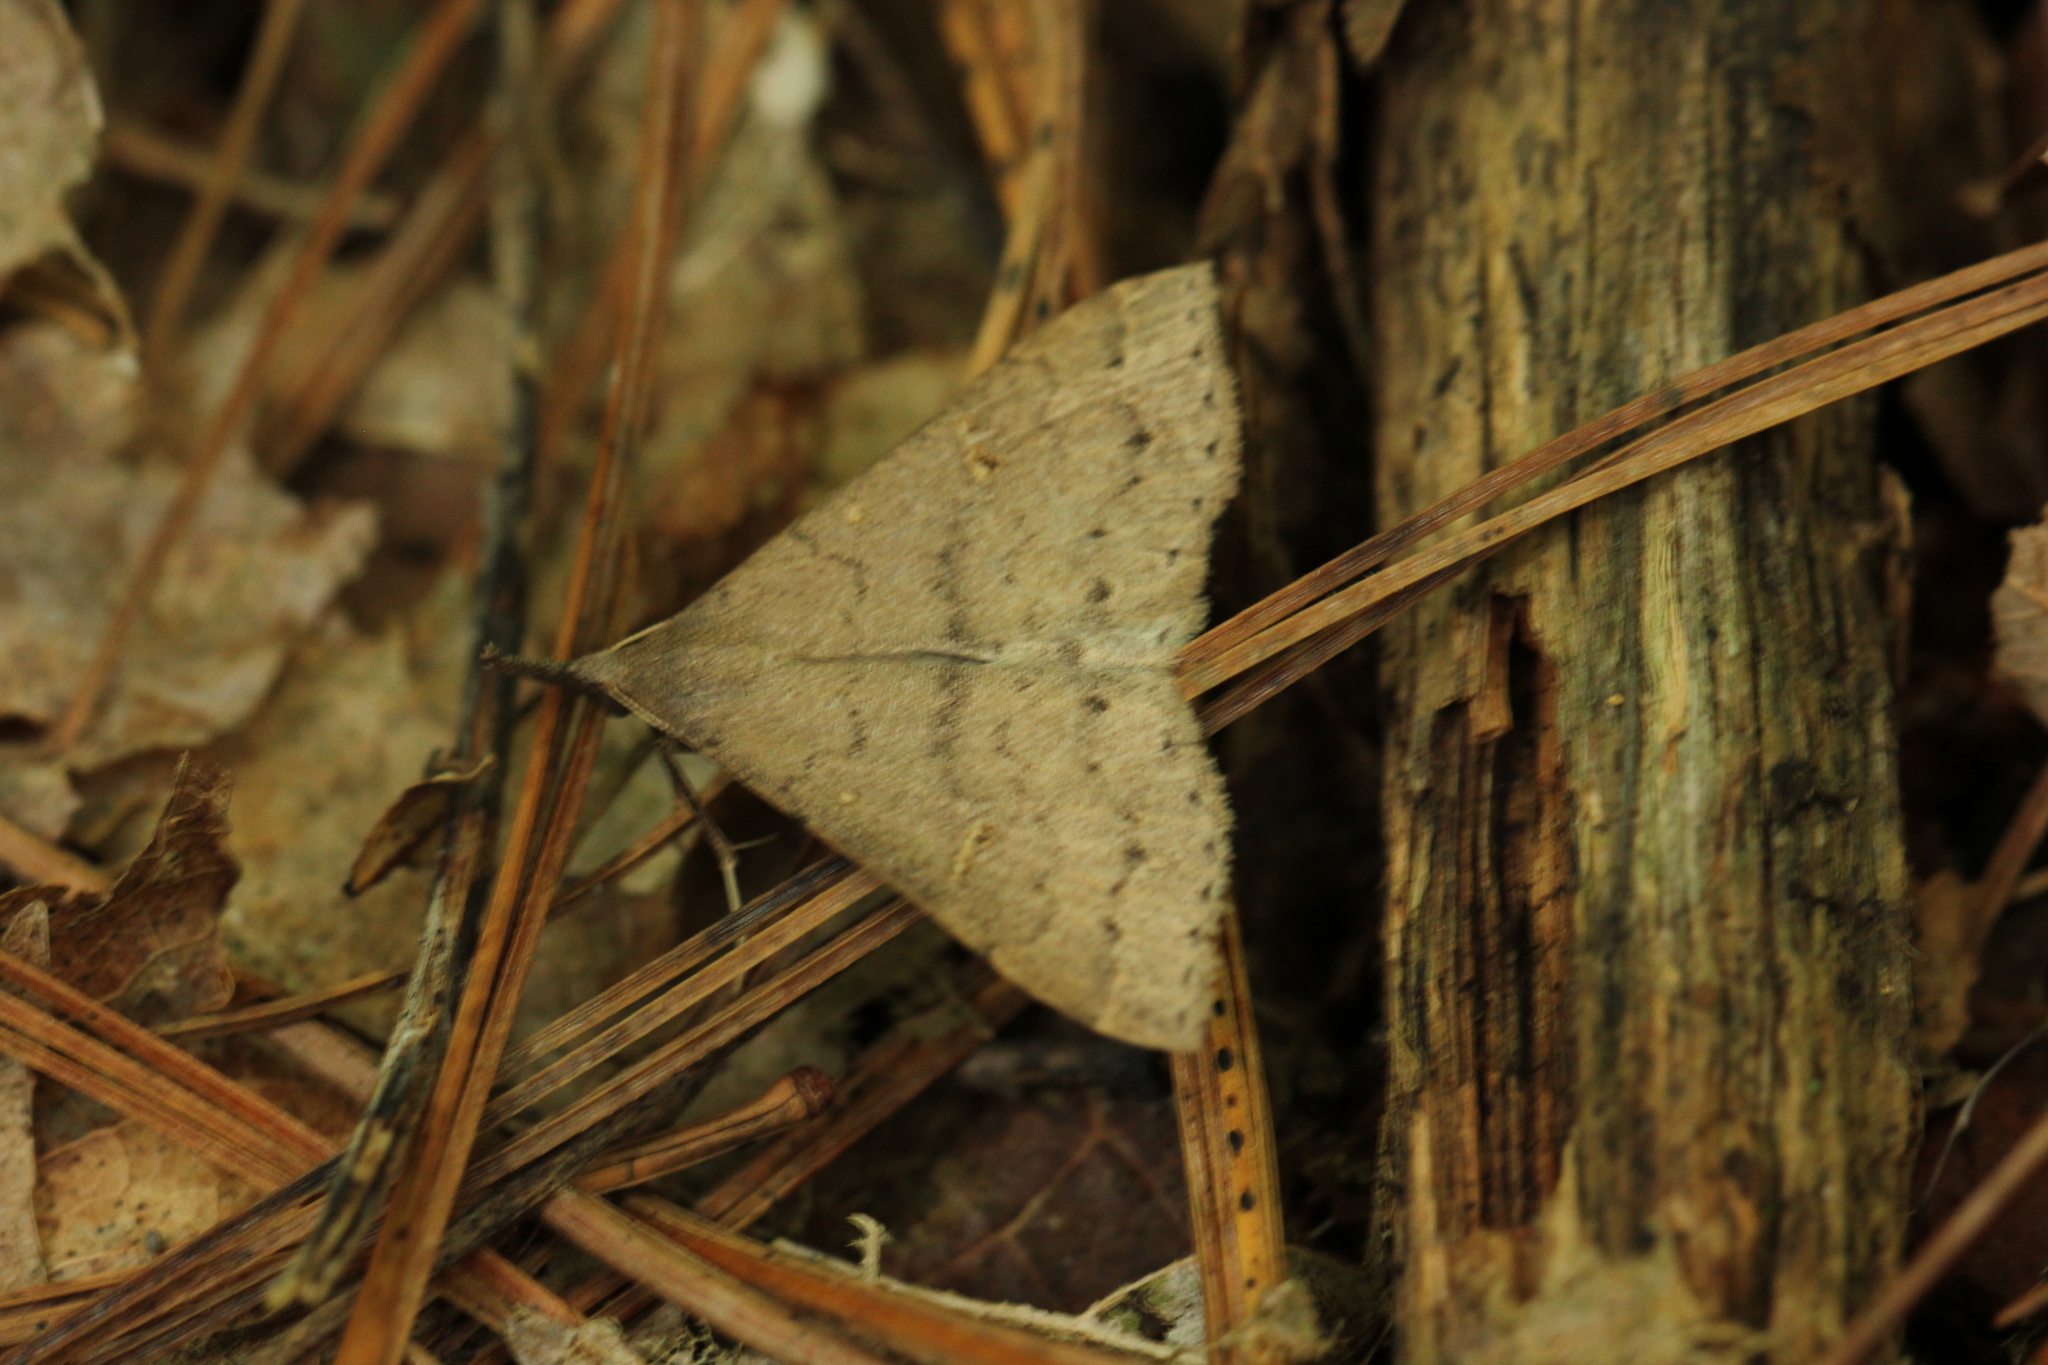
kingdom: Animalia
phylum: Arthropoda
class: Insecta
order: Lepidoptera
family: Erebidae
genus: Renia
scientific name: Renia adspergillus
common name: Speckled renia moth
